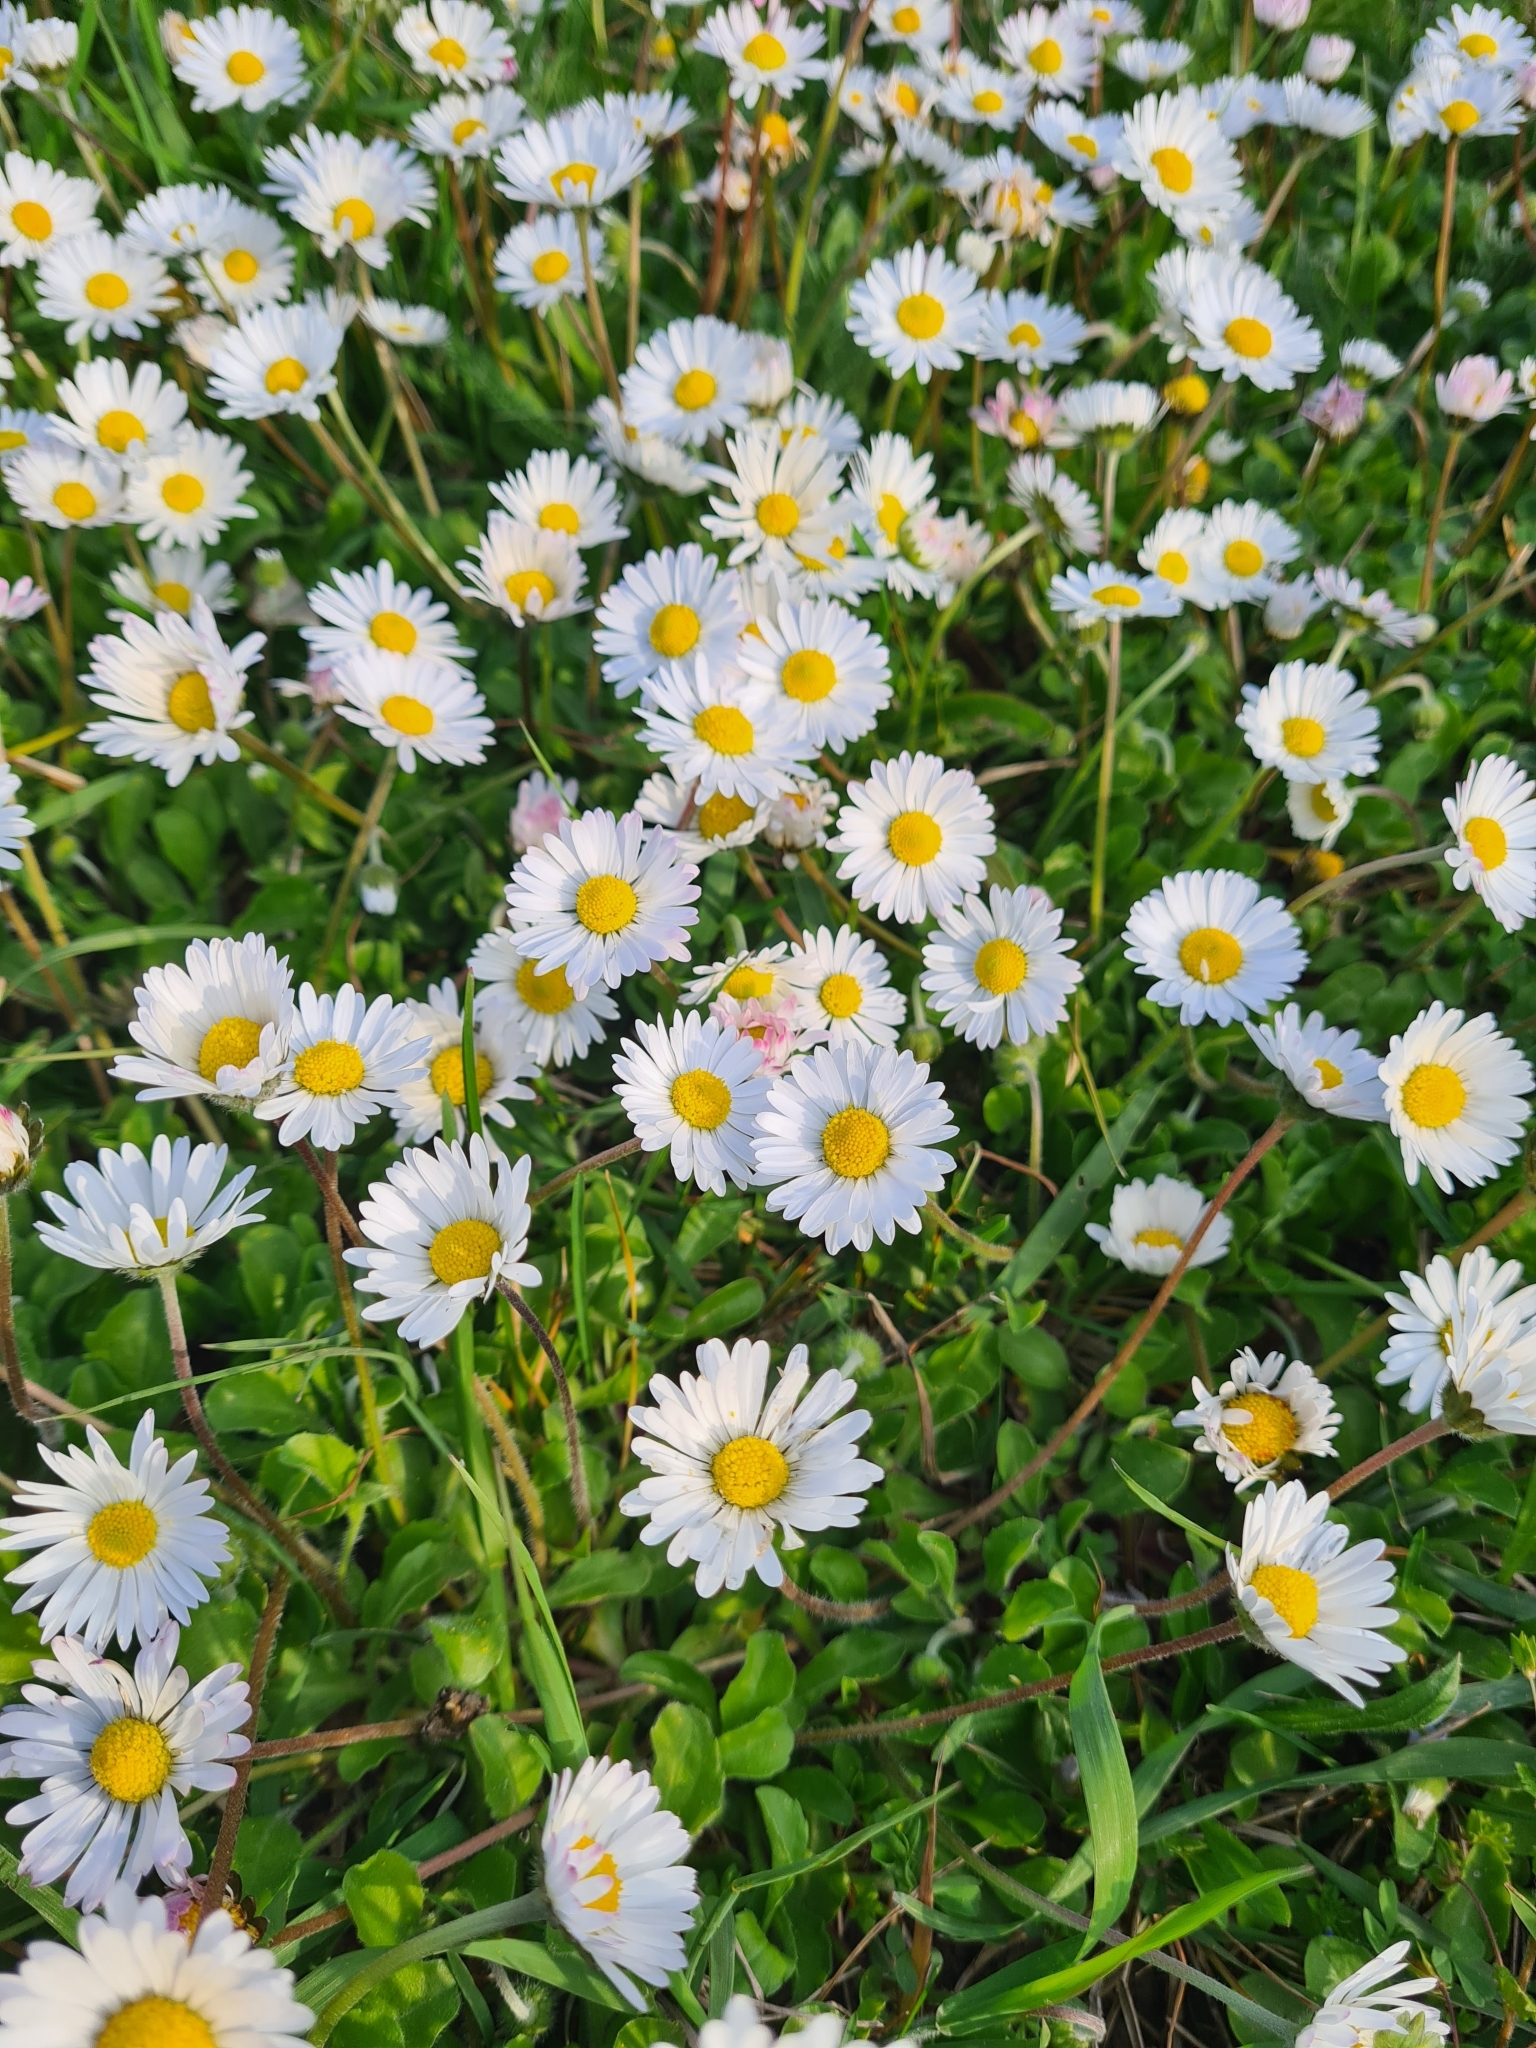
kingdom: Plantae
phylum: Tracheophyta
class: Magnoliopsida
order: Asterales
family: Asteraceae
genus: Bellis
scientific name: Bellis perennis
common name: Lawndaisy
